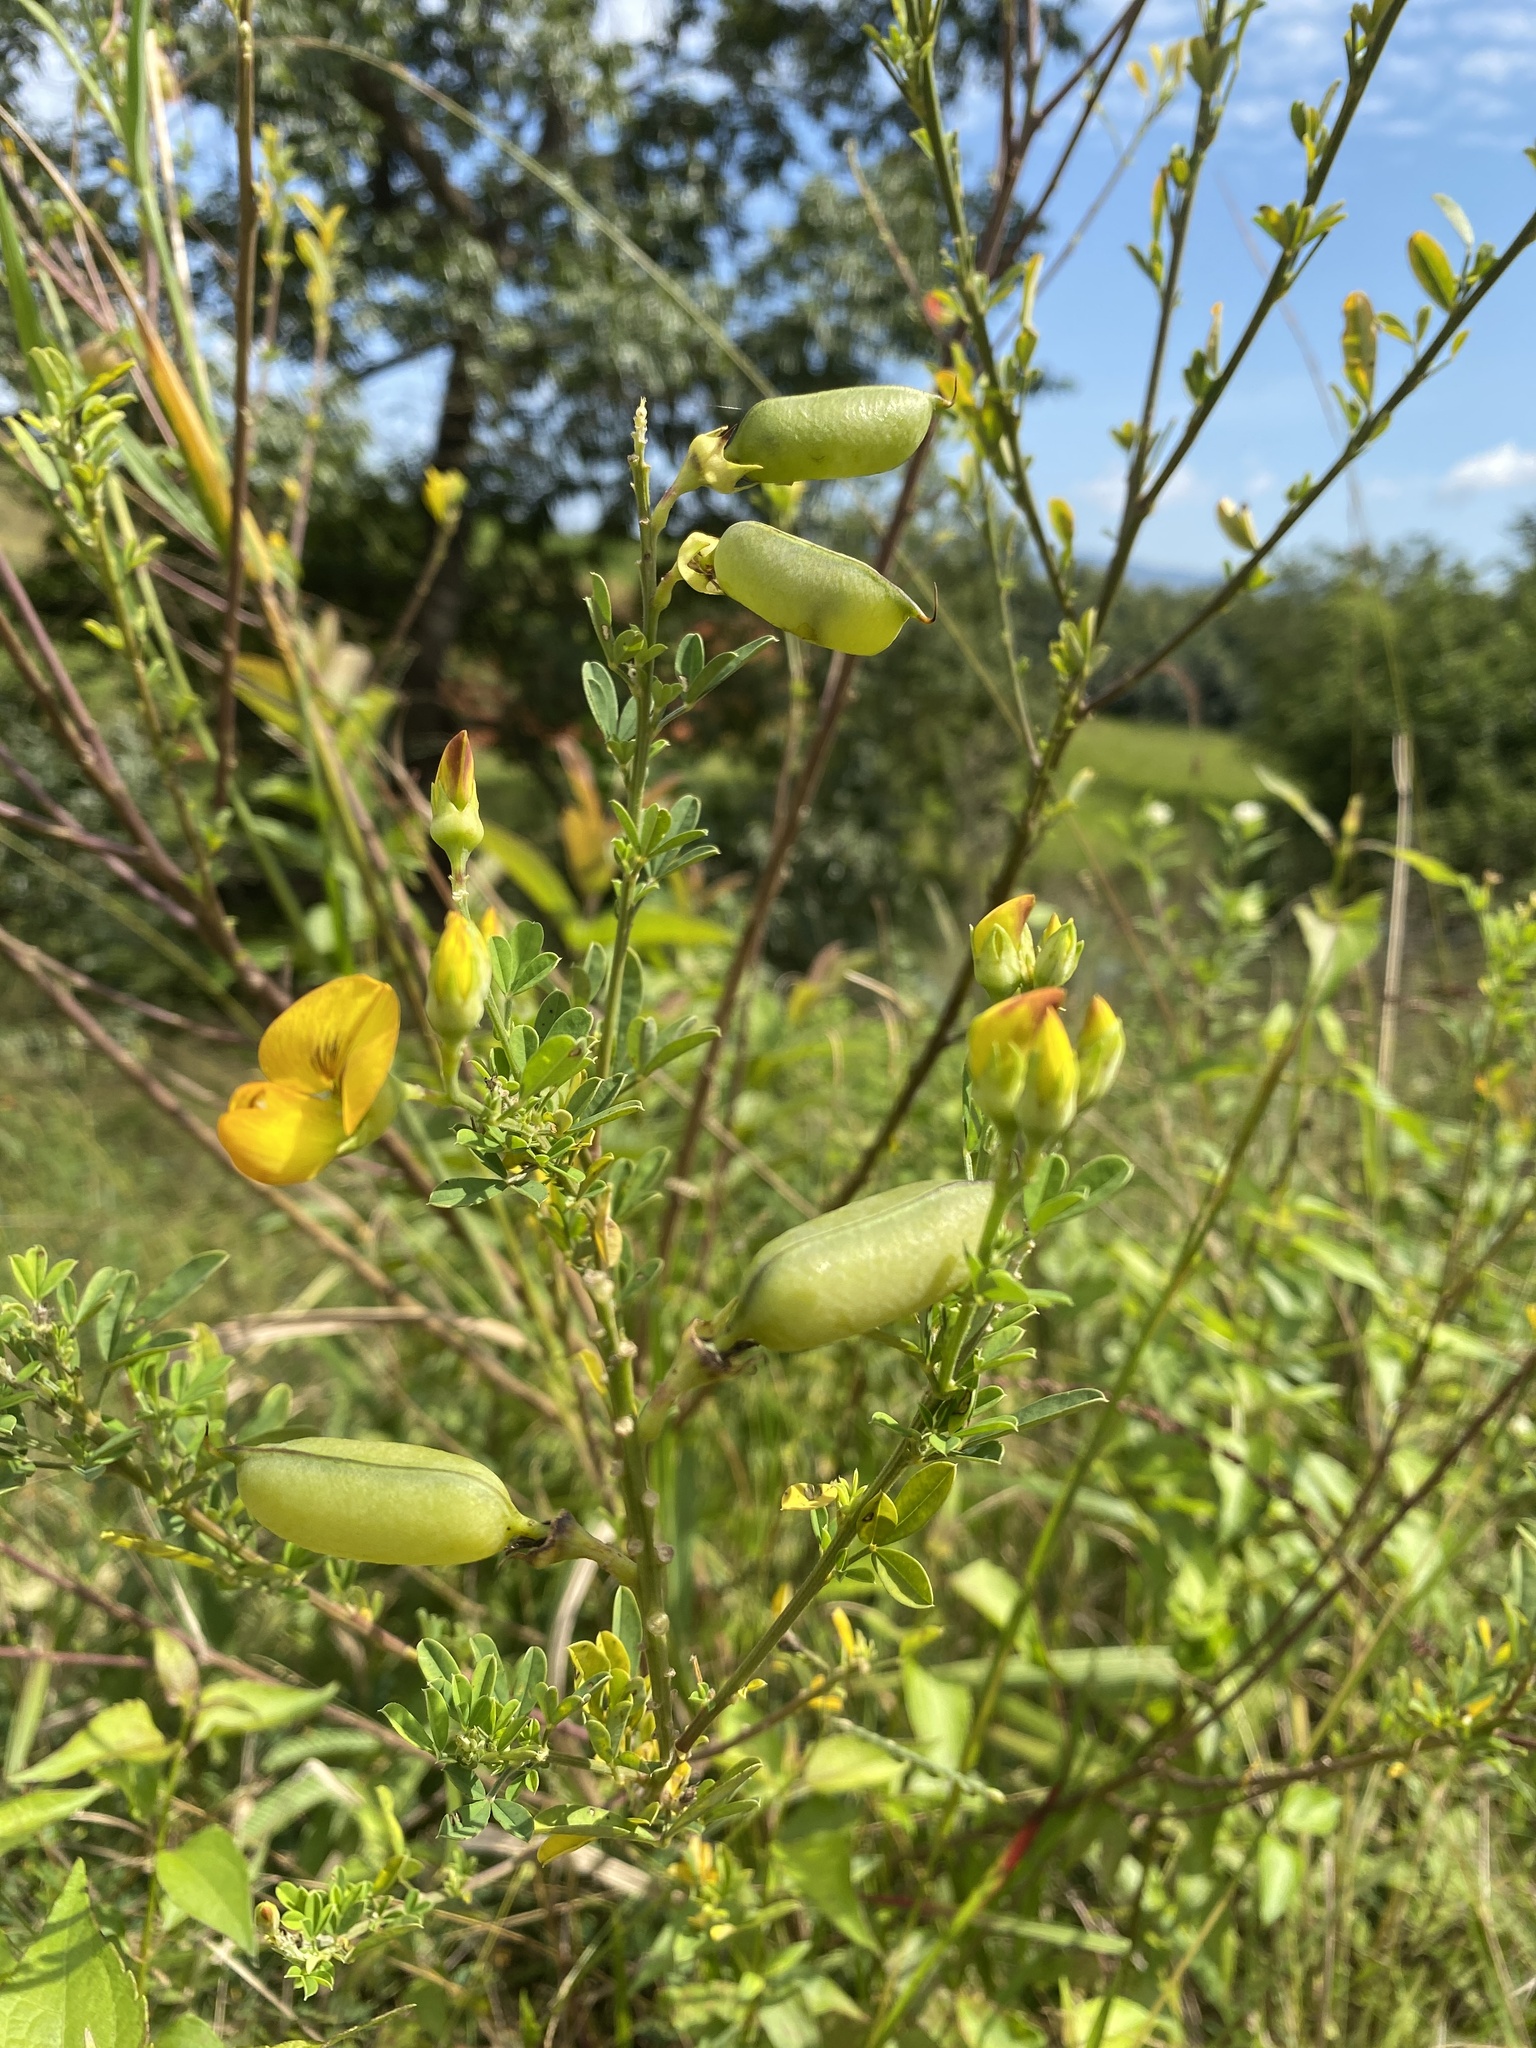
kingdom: Plantae
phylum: Tracheophyta
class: Magnoliopsida
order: Fabales
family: Fabaceae
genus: Crotalaria
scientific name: Crotalaria natalitia
